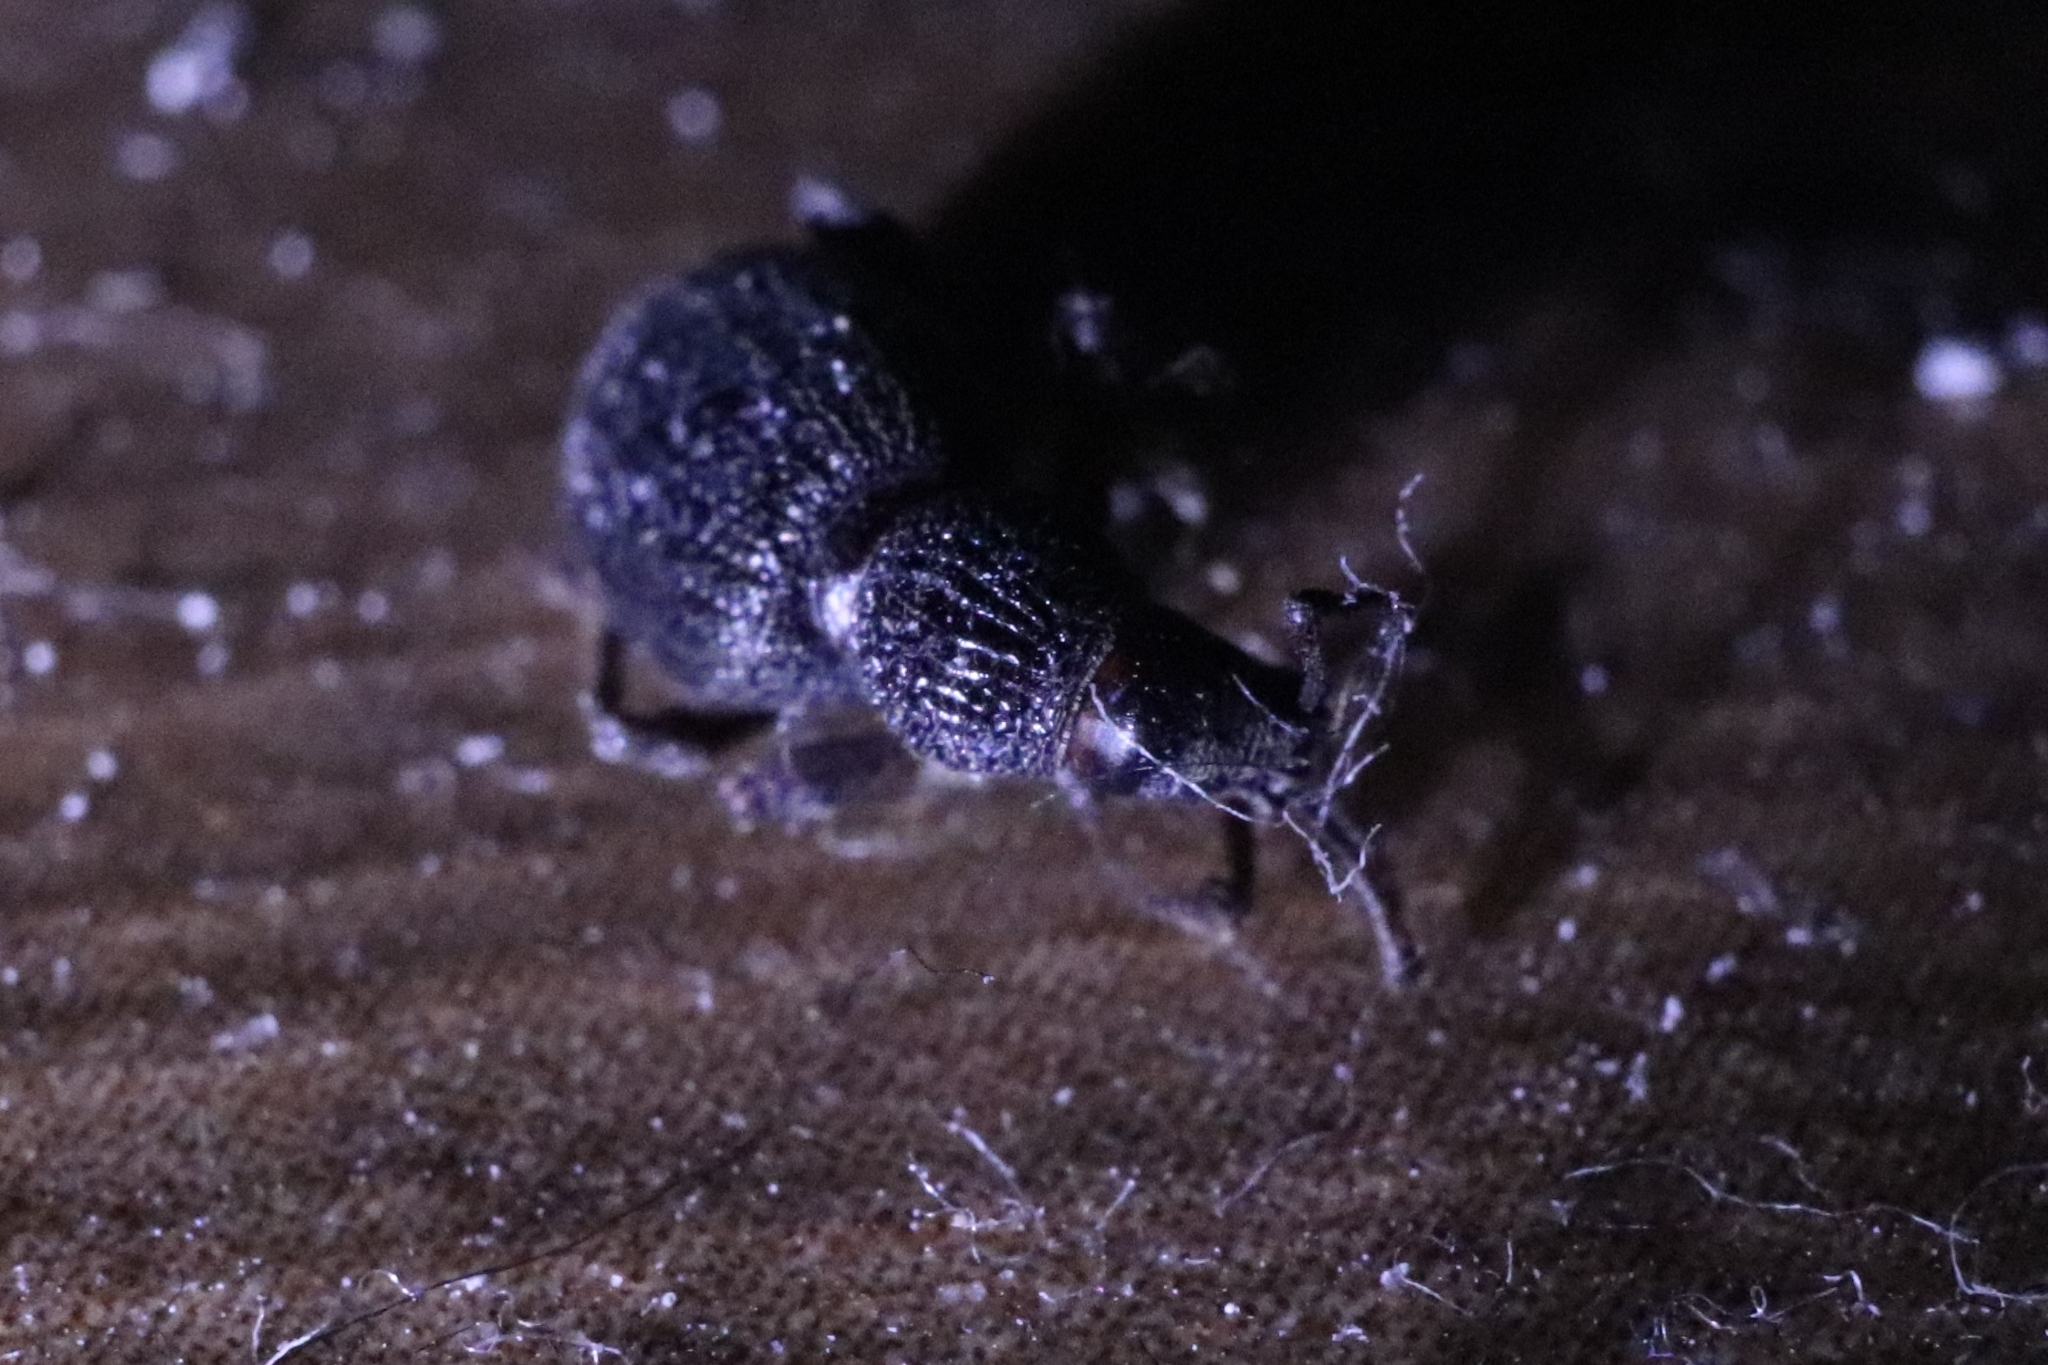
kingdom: Animalia
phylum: Arthropoda
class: Insecta
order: Coleoptera
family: Curculionidae
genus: Otiorhynchus
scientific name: Otiorhynchus ovatus
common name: Strawberry root weevil
